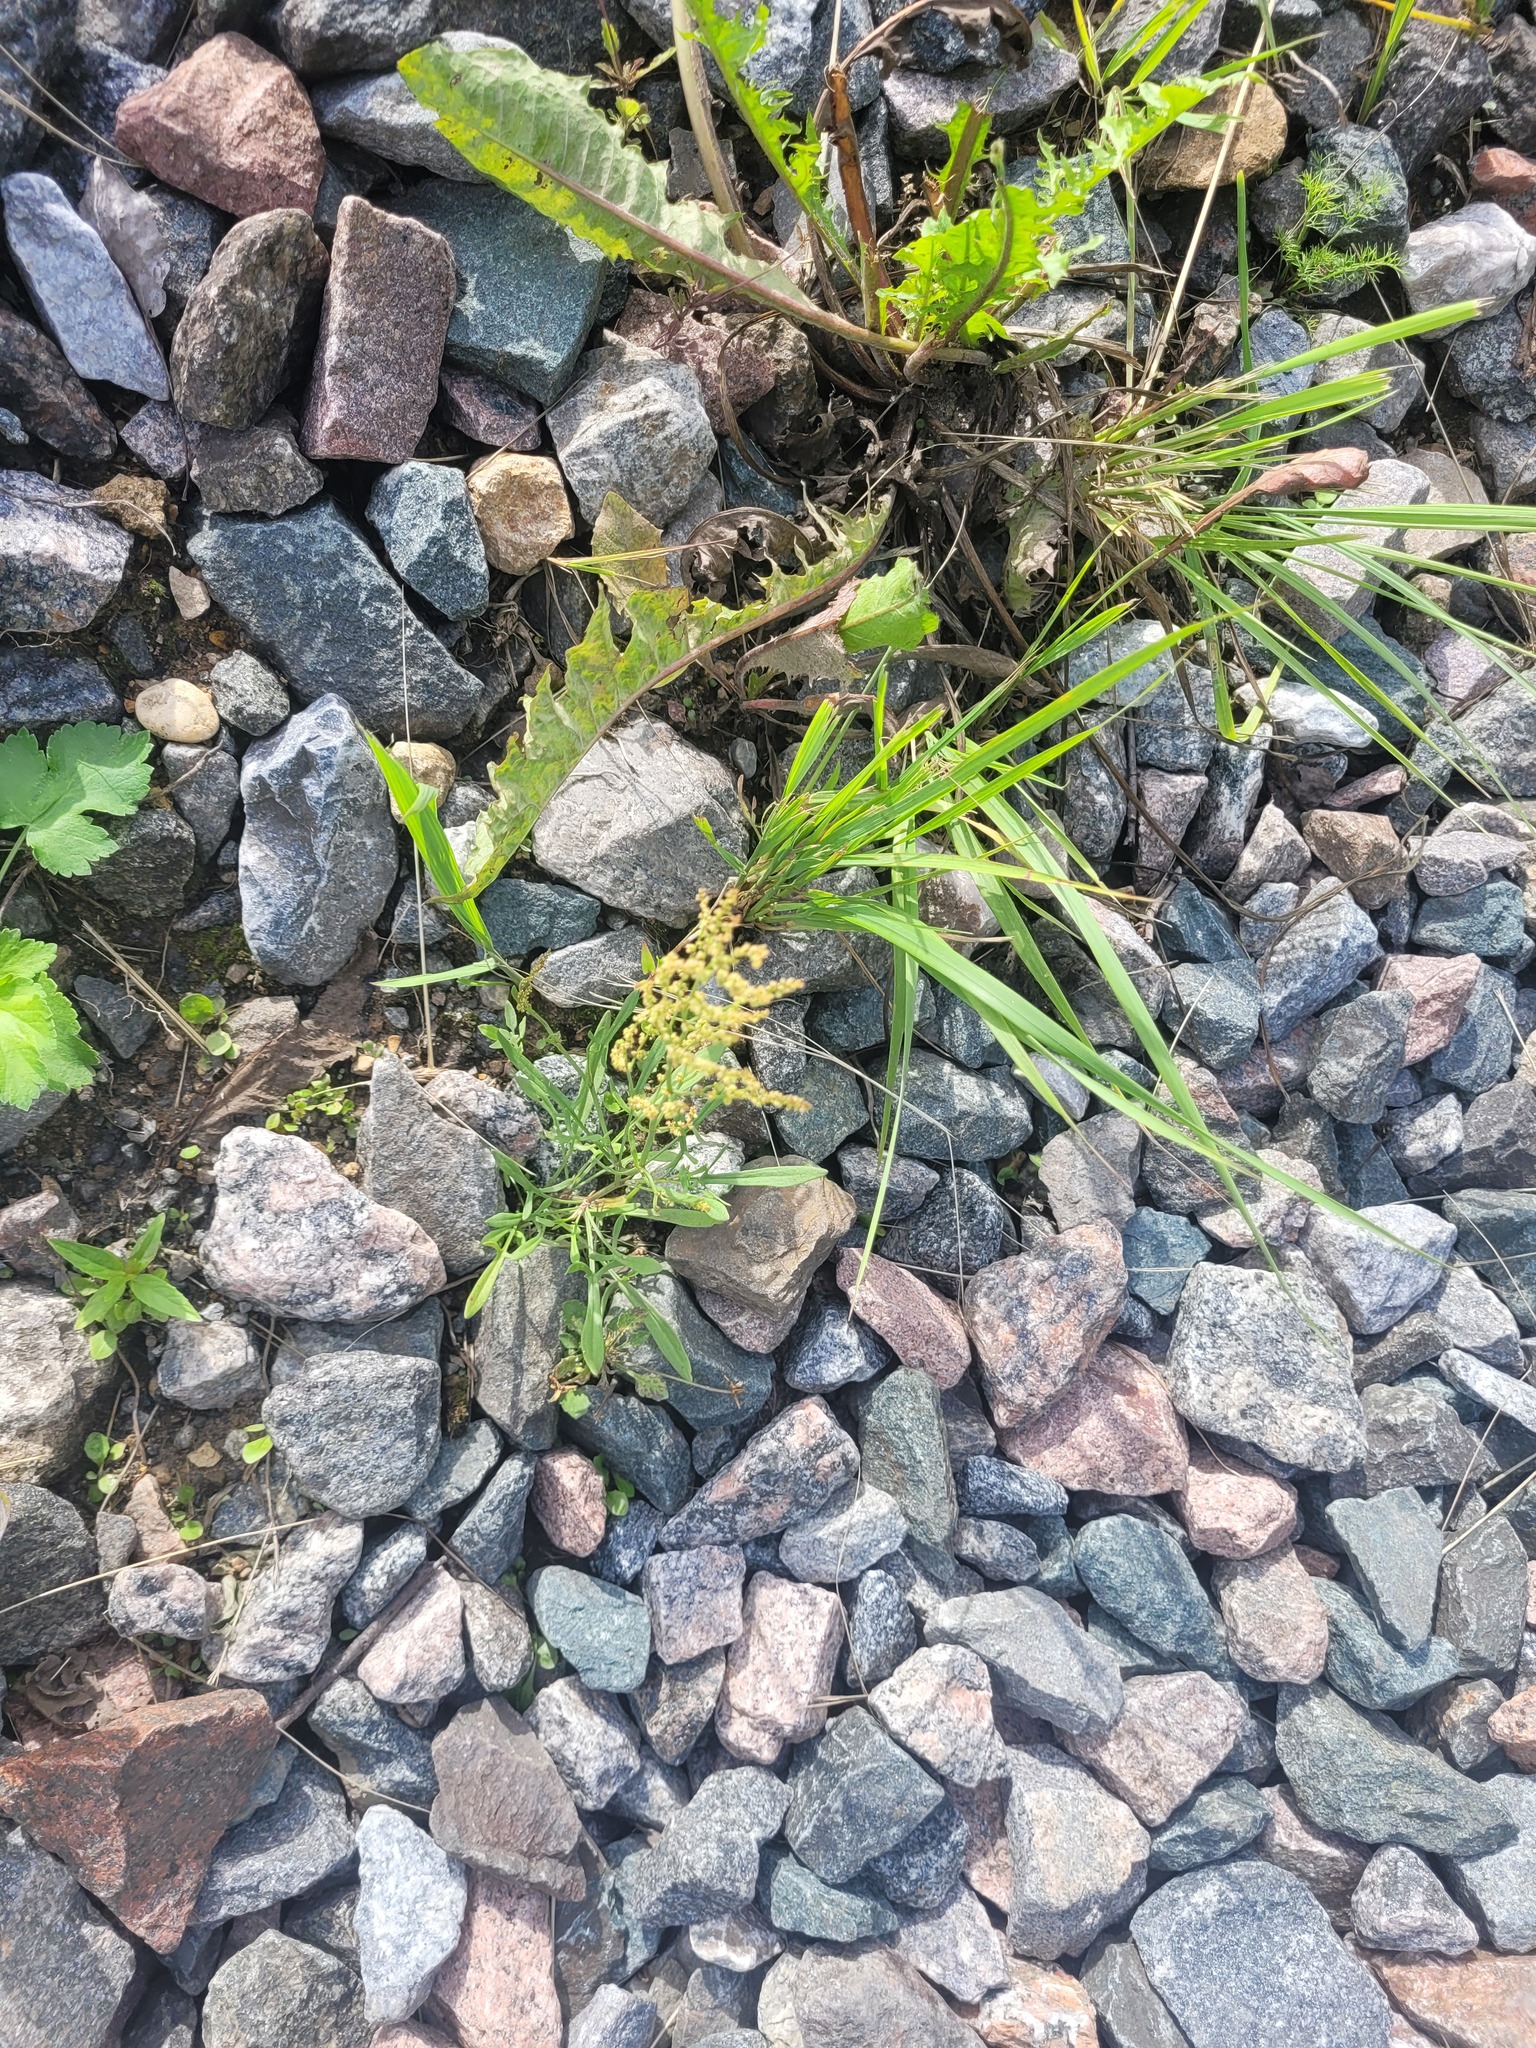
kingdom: Plantae
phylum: Tracheophyta
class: Magnoliopsida
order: Caryophyllales
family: Polygonaceae
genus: Rumex
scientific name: Rumex acetosella
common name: Common sheep sorrel
